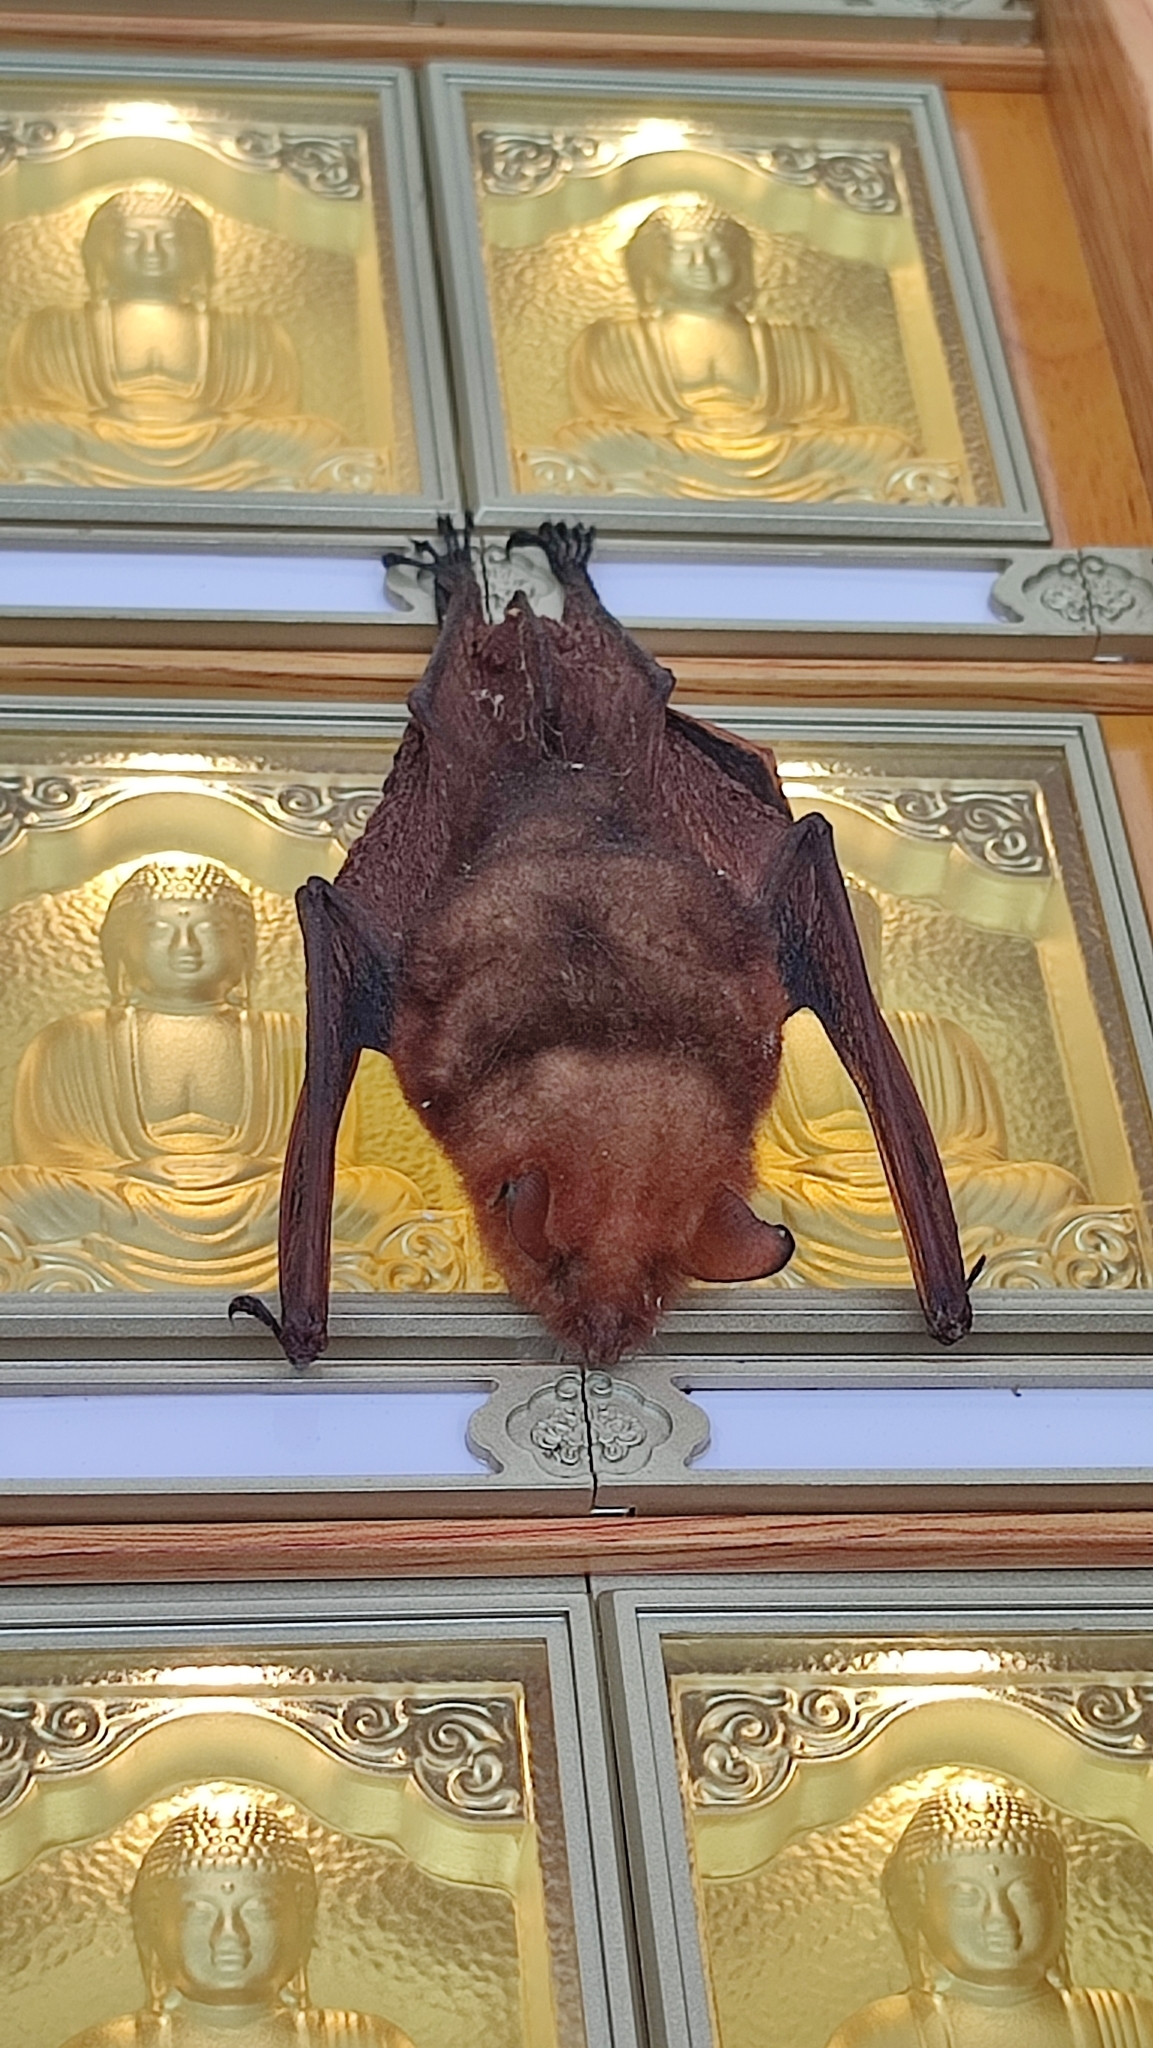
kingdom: Animalia
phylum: Chordata
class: Mammalia
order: Chiroptera
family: Vespertilionidae
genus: Myotis
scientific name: Myotis rufoniger
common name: Black-winged myotis
